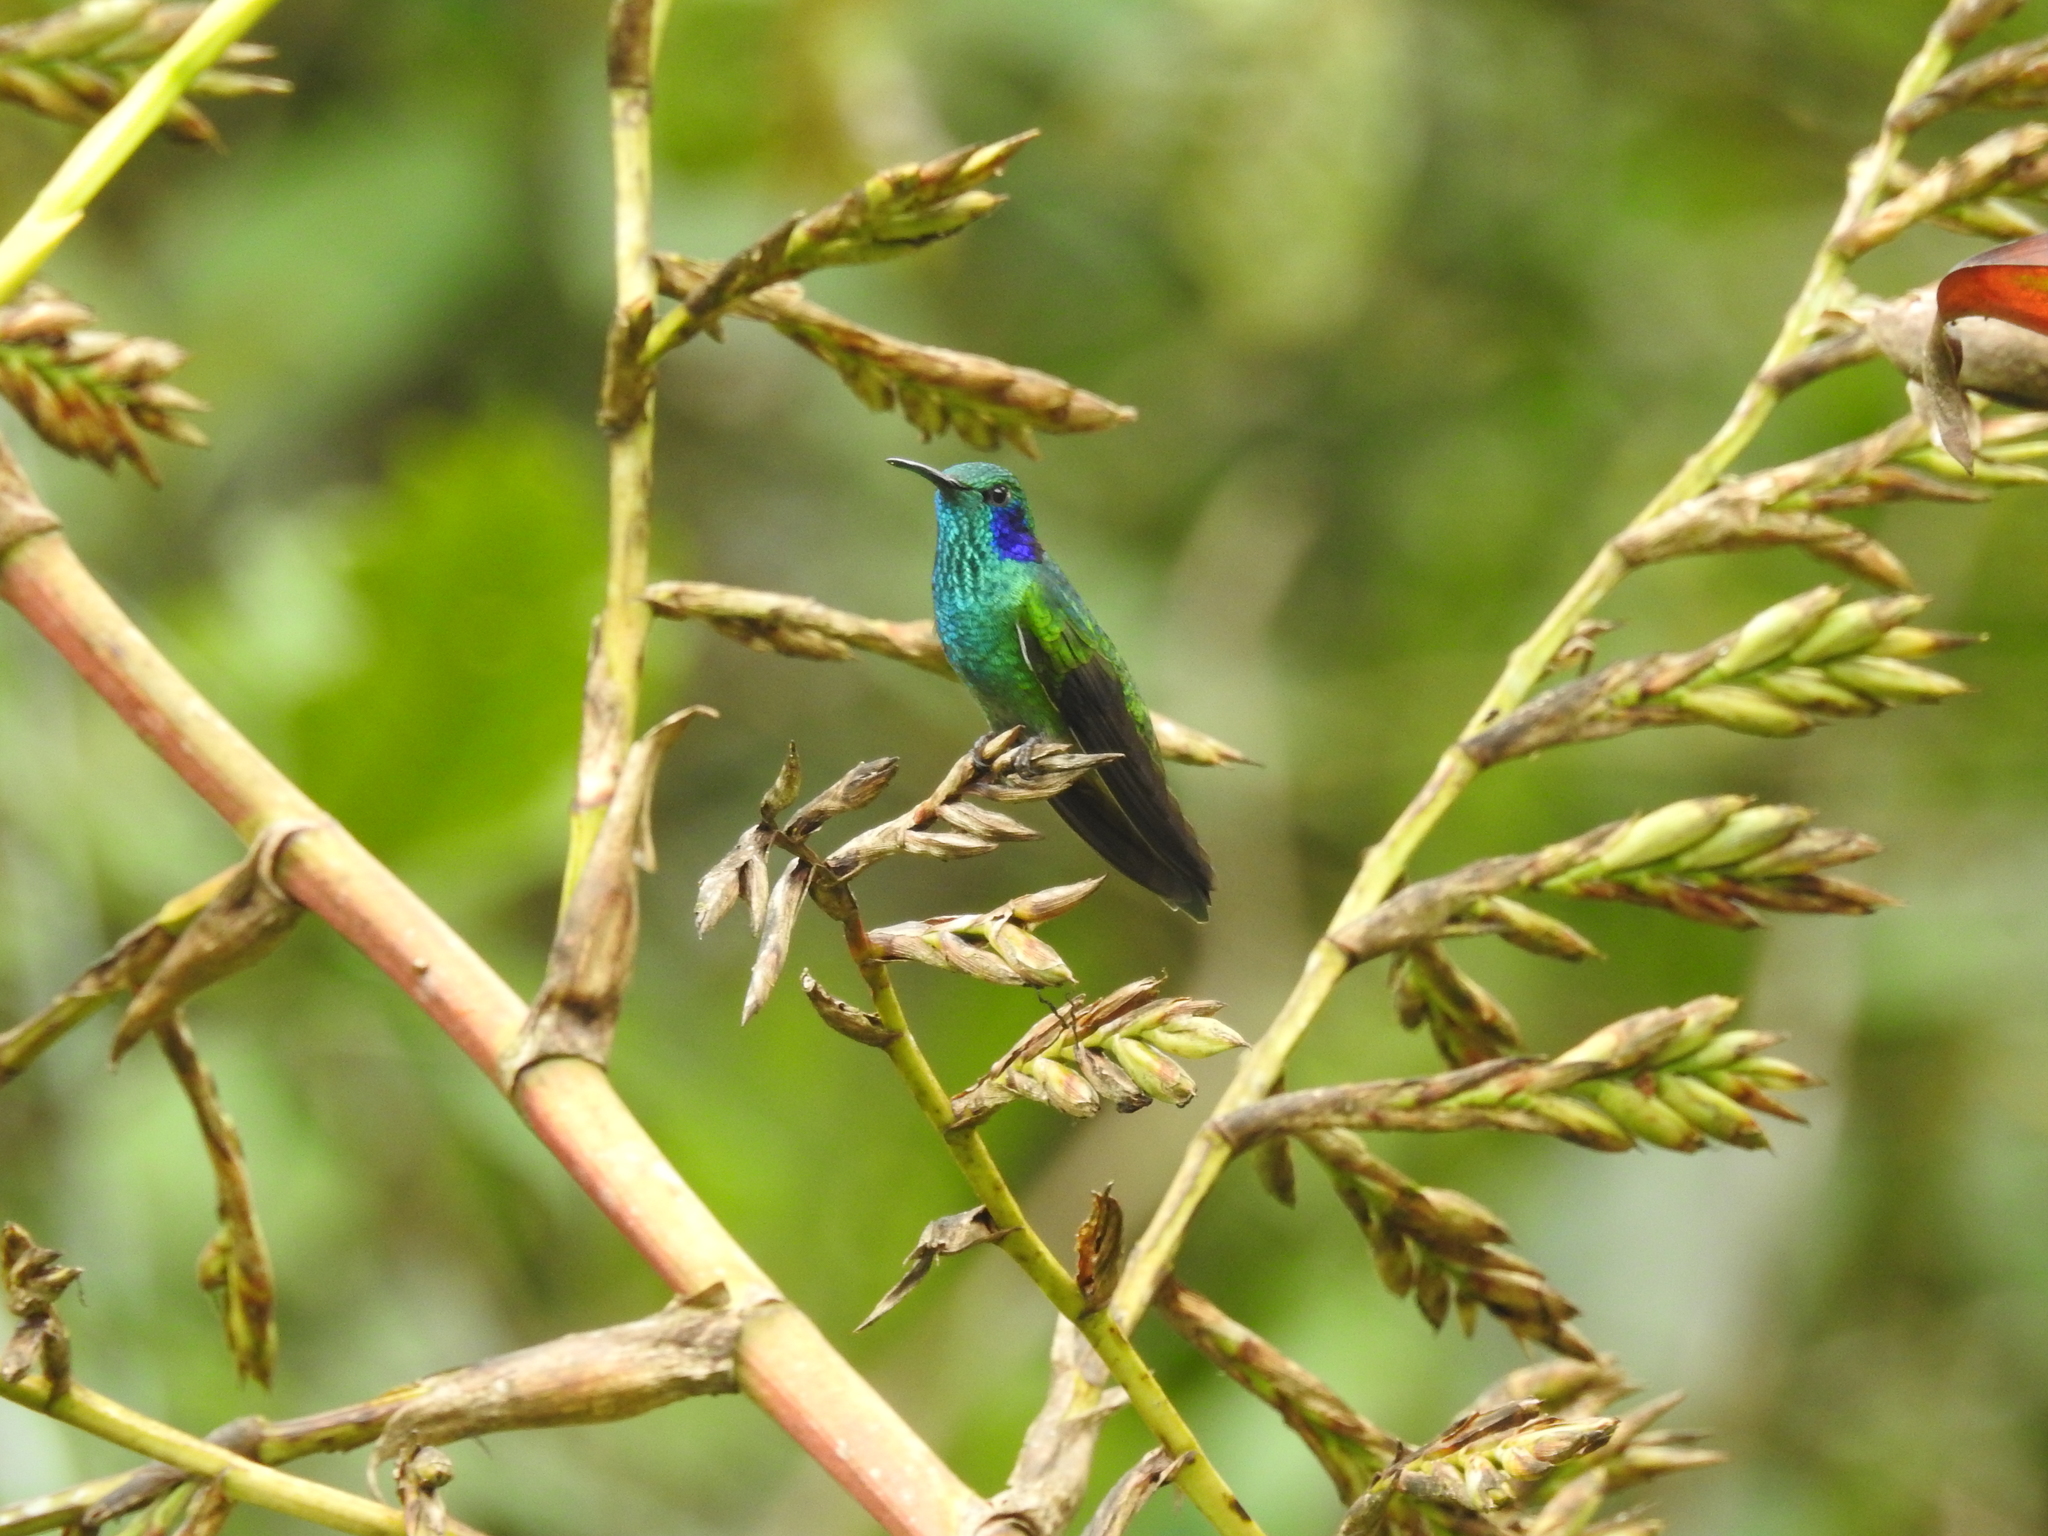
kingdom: Animalia
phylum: Chordata
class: Aves
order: Apodiformes
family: Trochilidae
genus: Colibri
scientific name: Colibri cyanotus
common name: Lesser violetear
